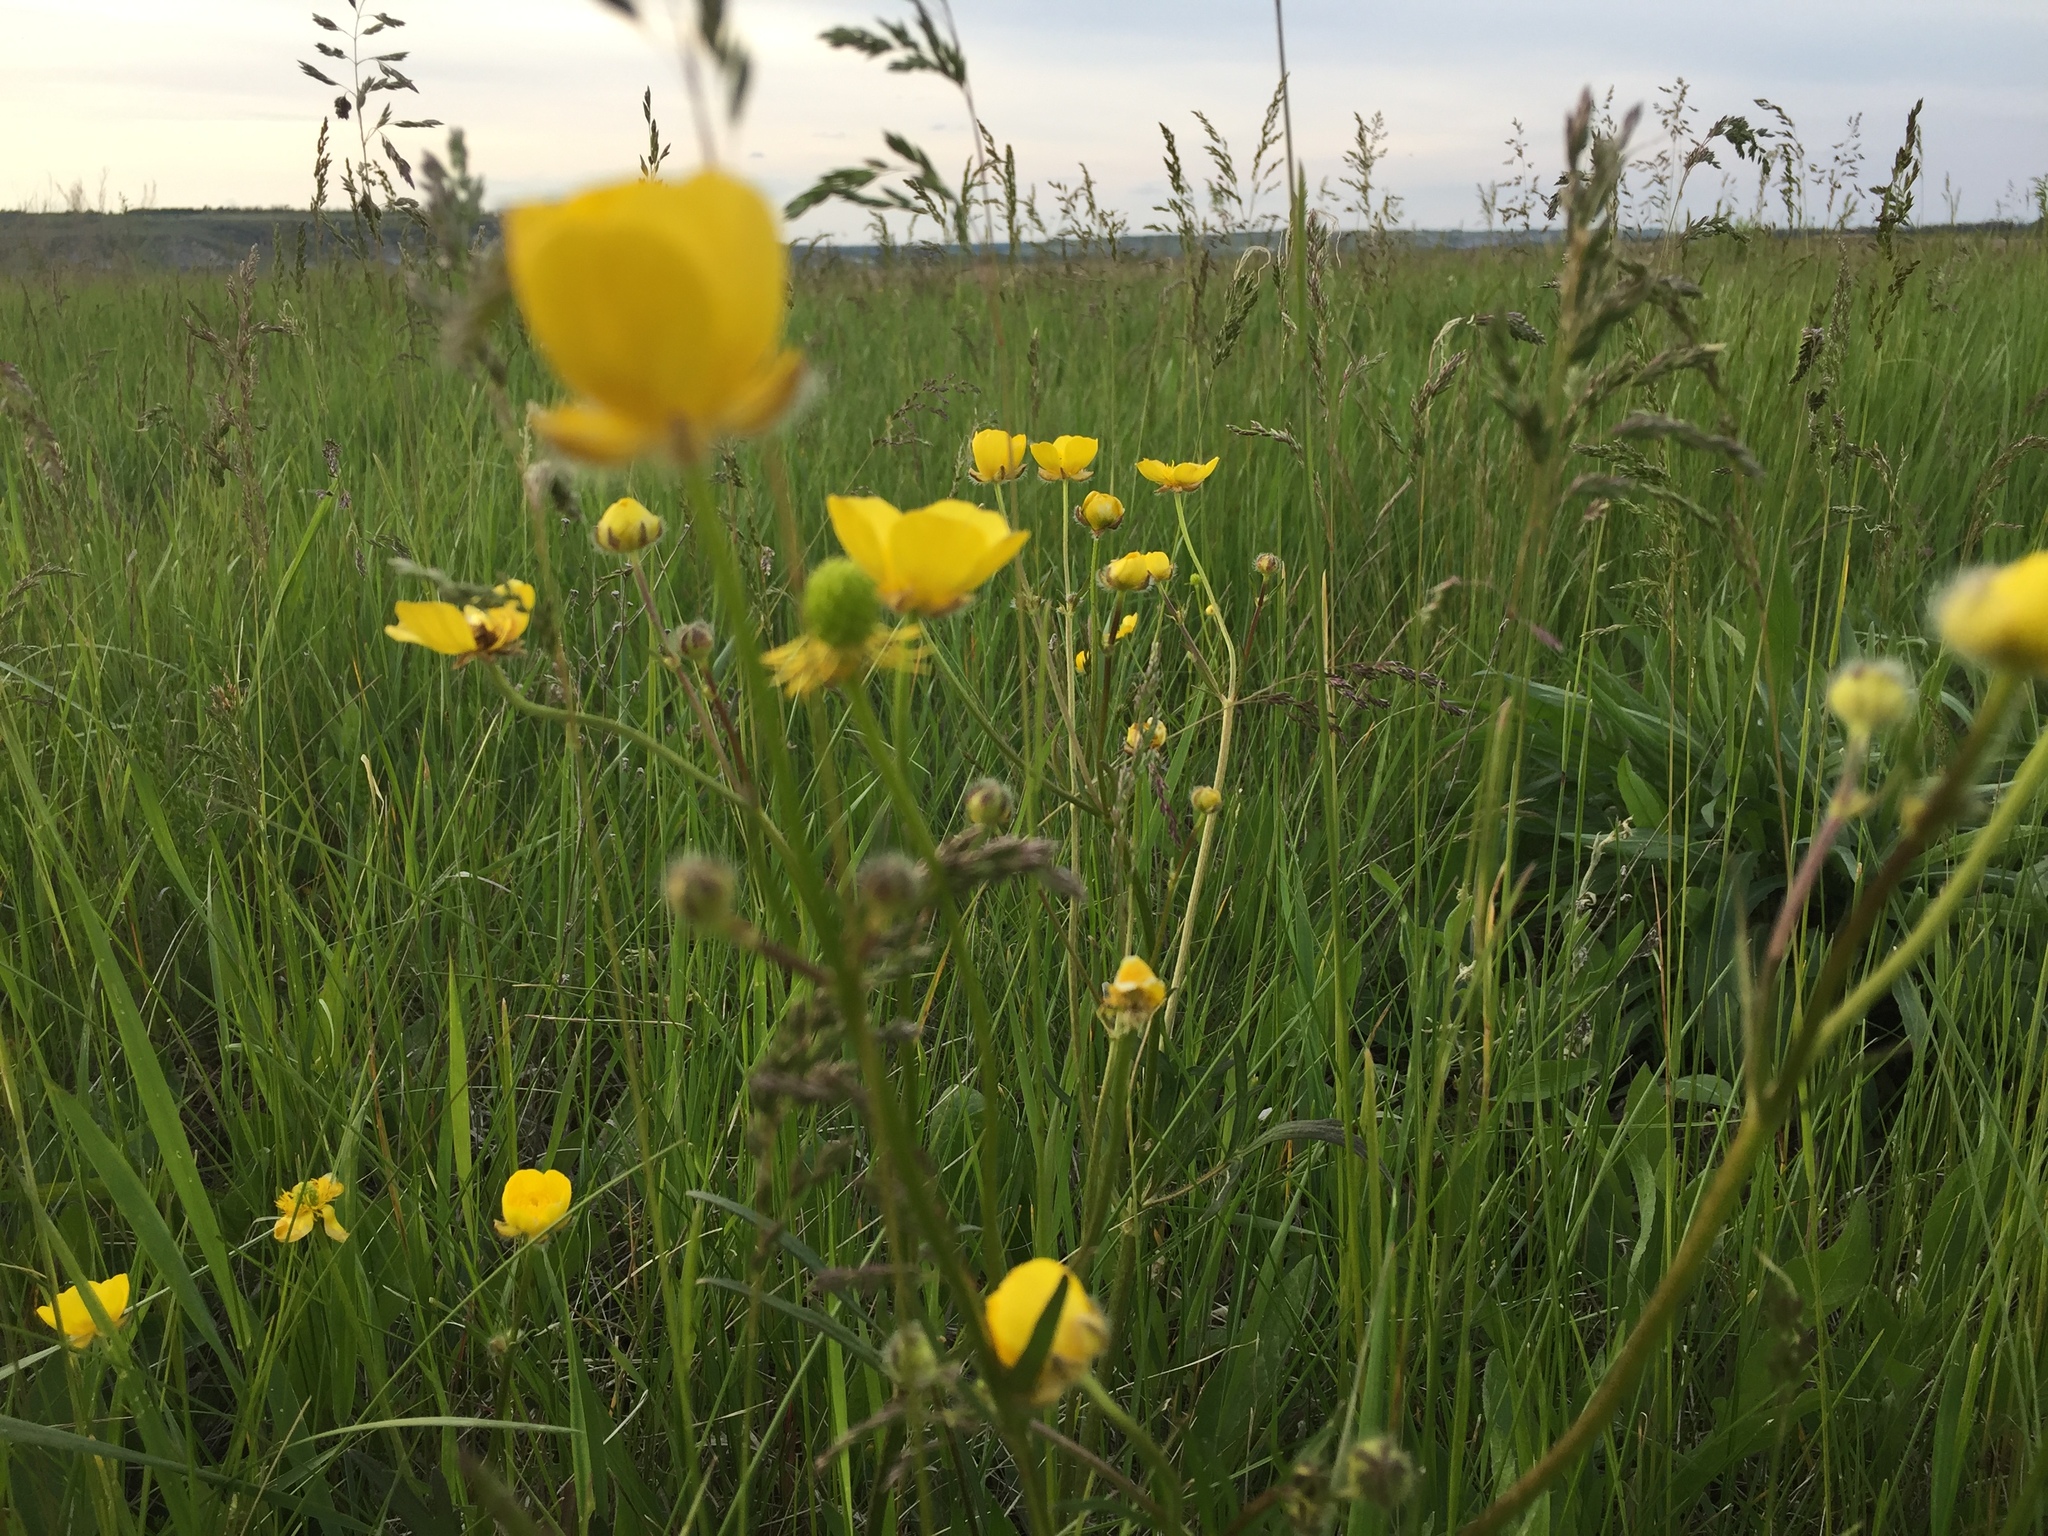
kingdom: Plantae
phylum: Tracheophyta
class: Magnoliopsida
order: Ranunculales
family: Ranunculaceae
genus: Ranunculus
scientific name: Ranunculus polyanthemos
